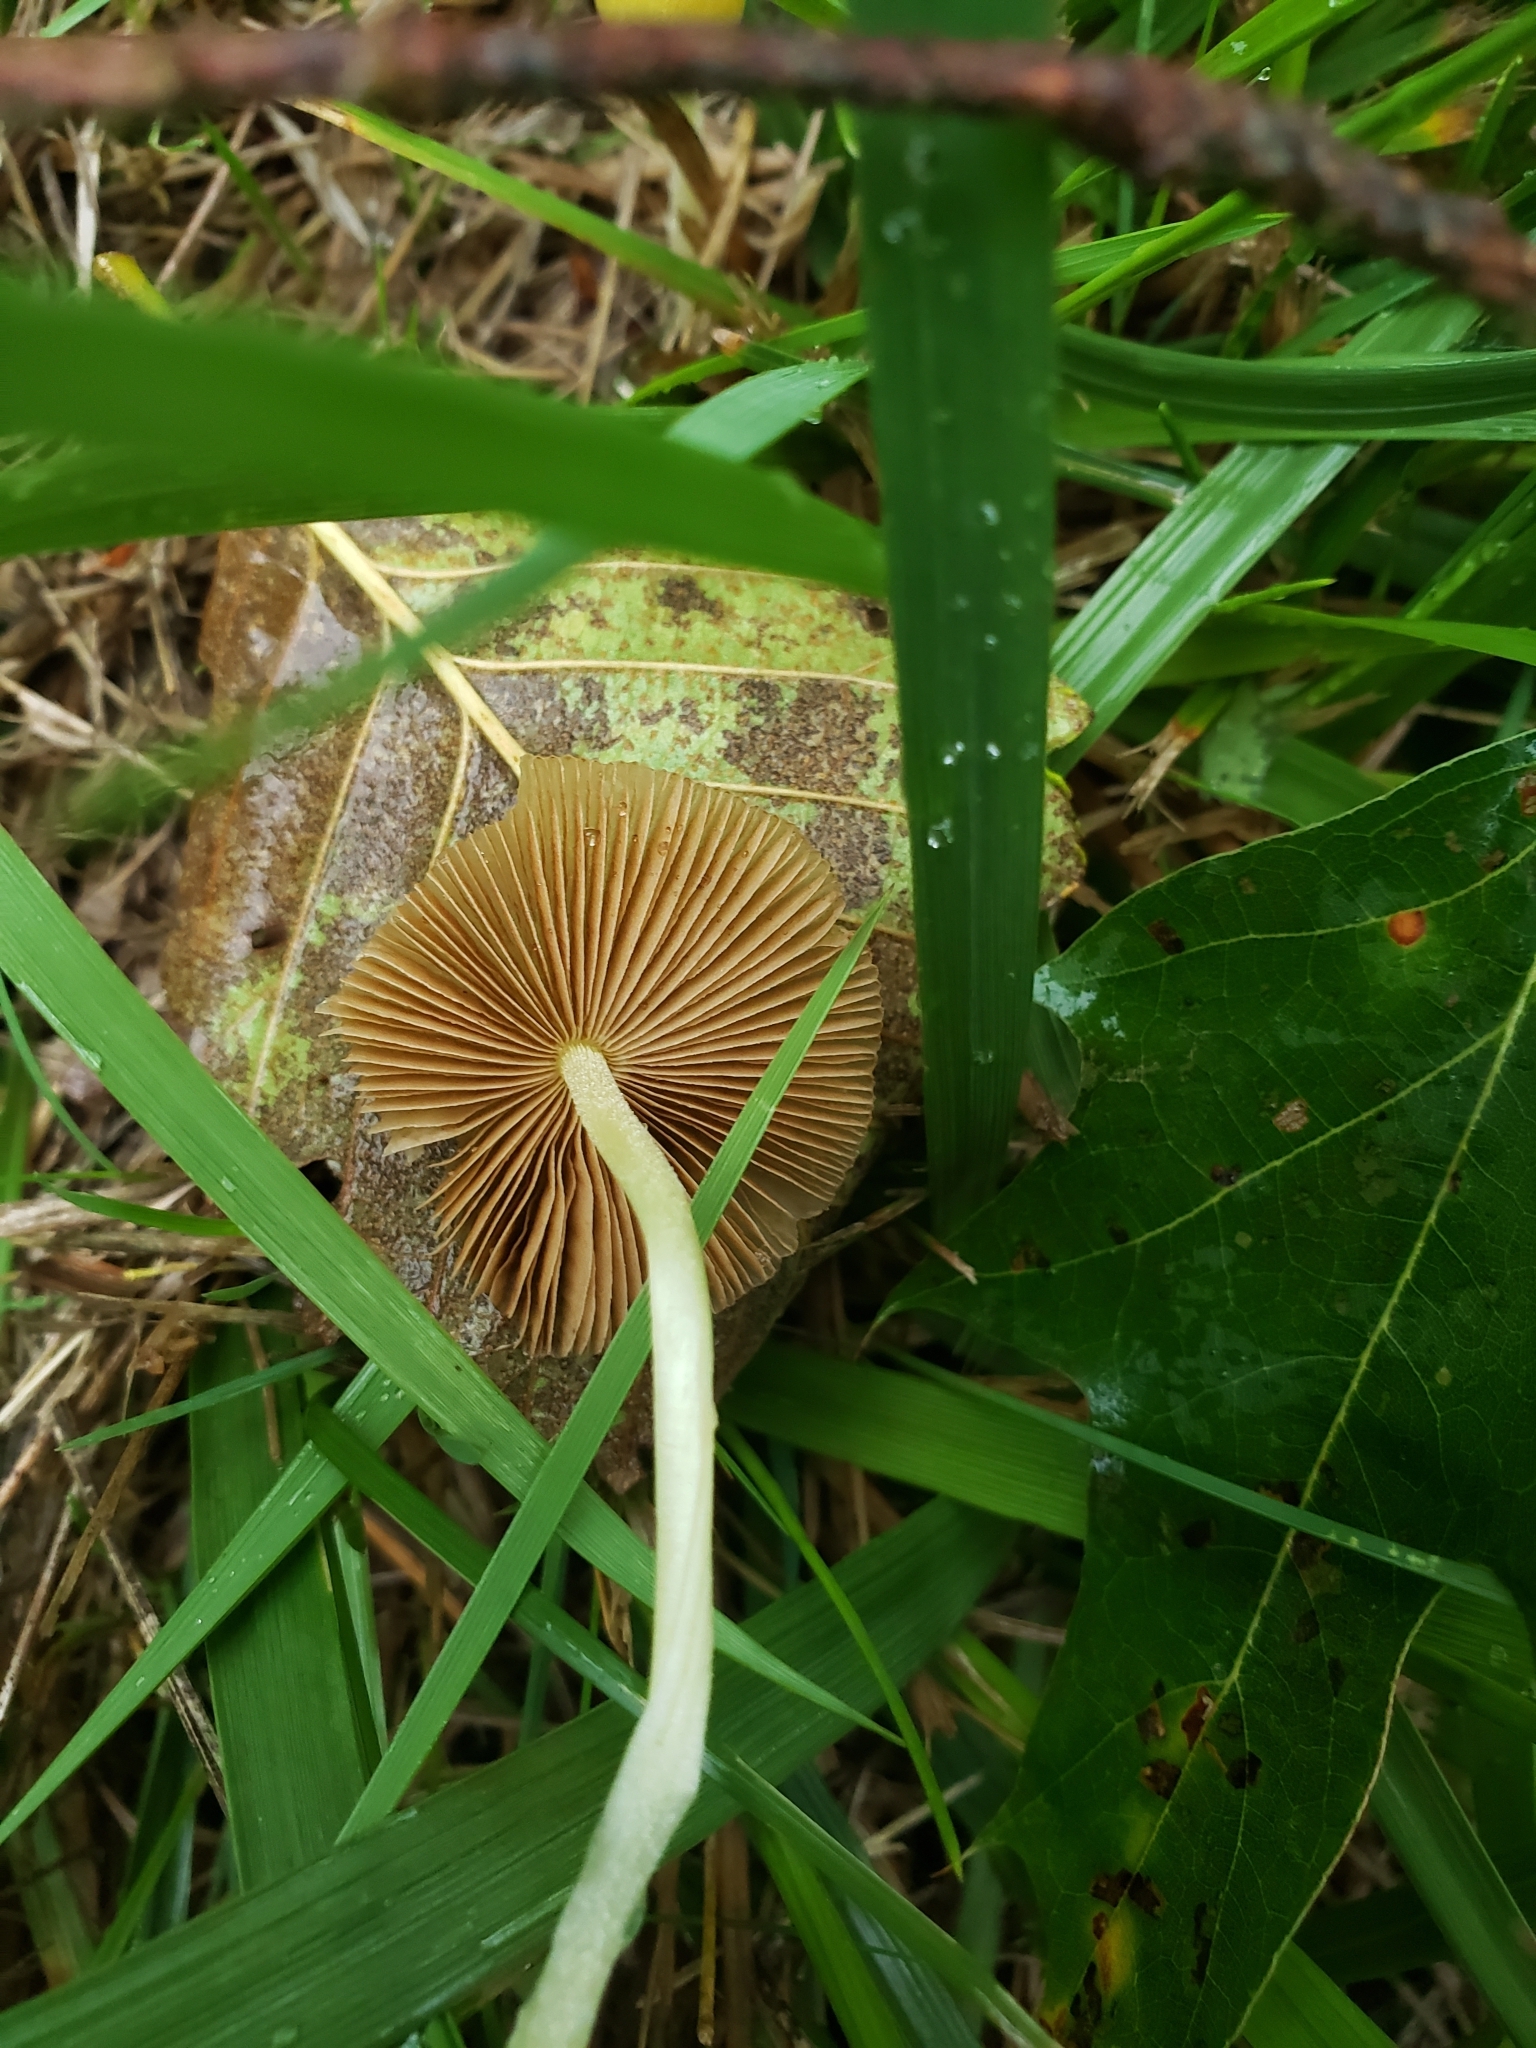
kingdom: Fungi
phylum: Basidiomycota
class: Agaricomycetes
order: Agaricales
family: Bolbitiaceae
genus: Bolbitius
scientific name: Bolbitius titubans
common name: Yellow fieldcap
